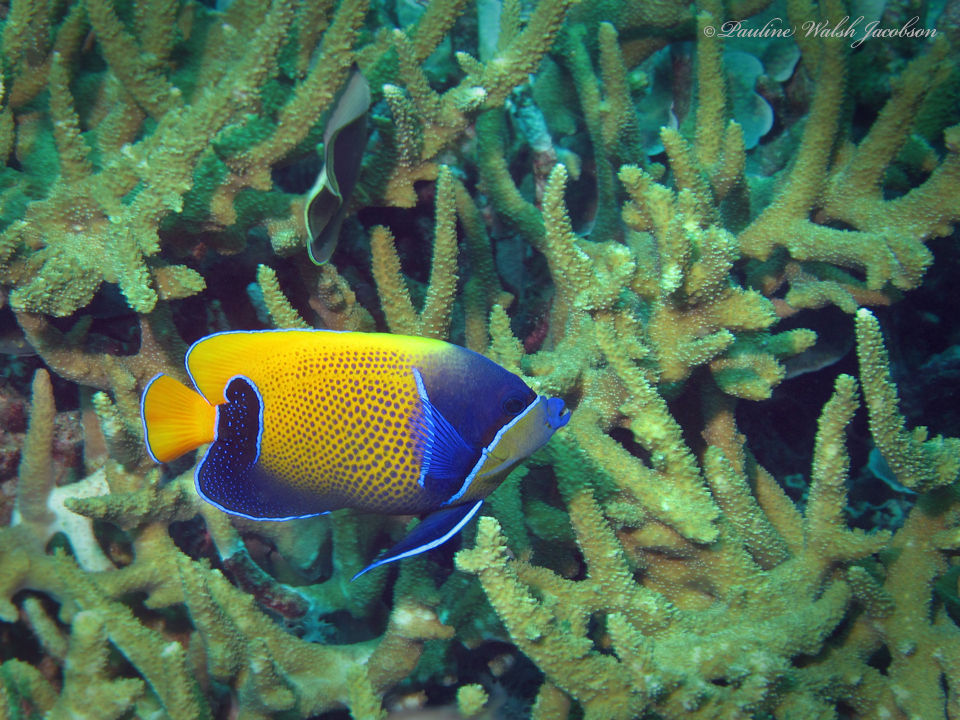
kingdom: Animalia
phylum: Chordata
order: Perciformes
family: Pomacanthidae
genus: Pomacanthus
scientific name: Pomacanthus navarchus
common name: Blue-girdled angelfish
